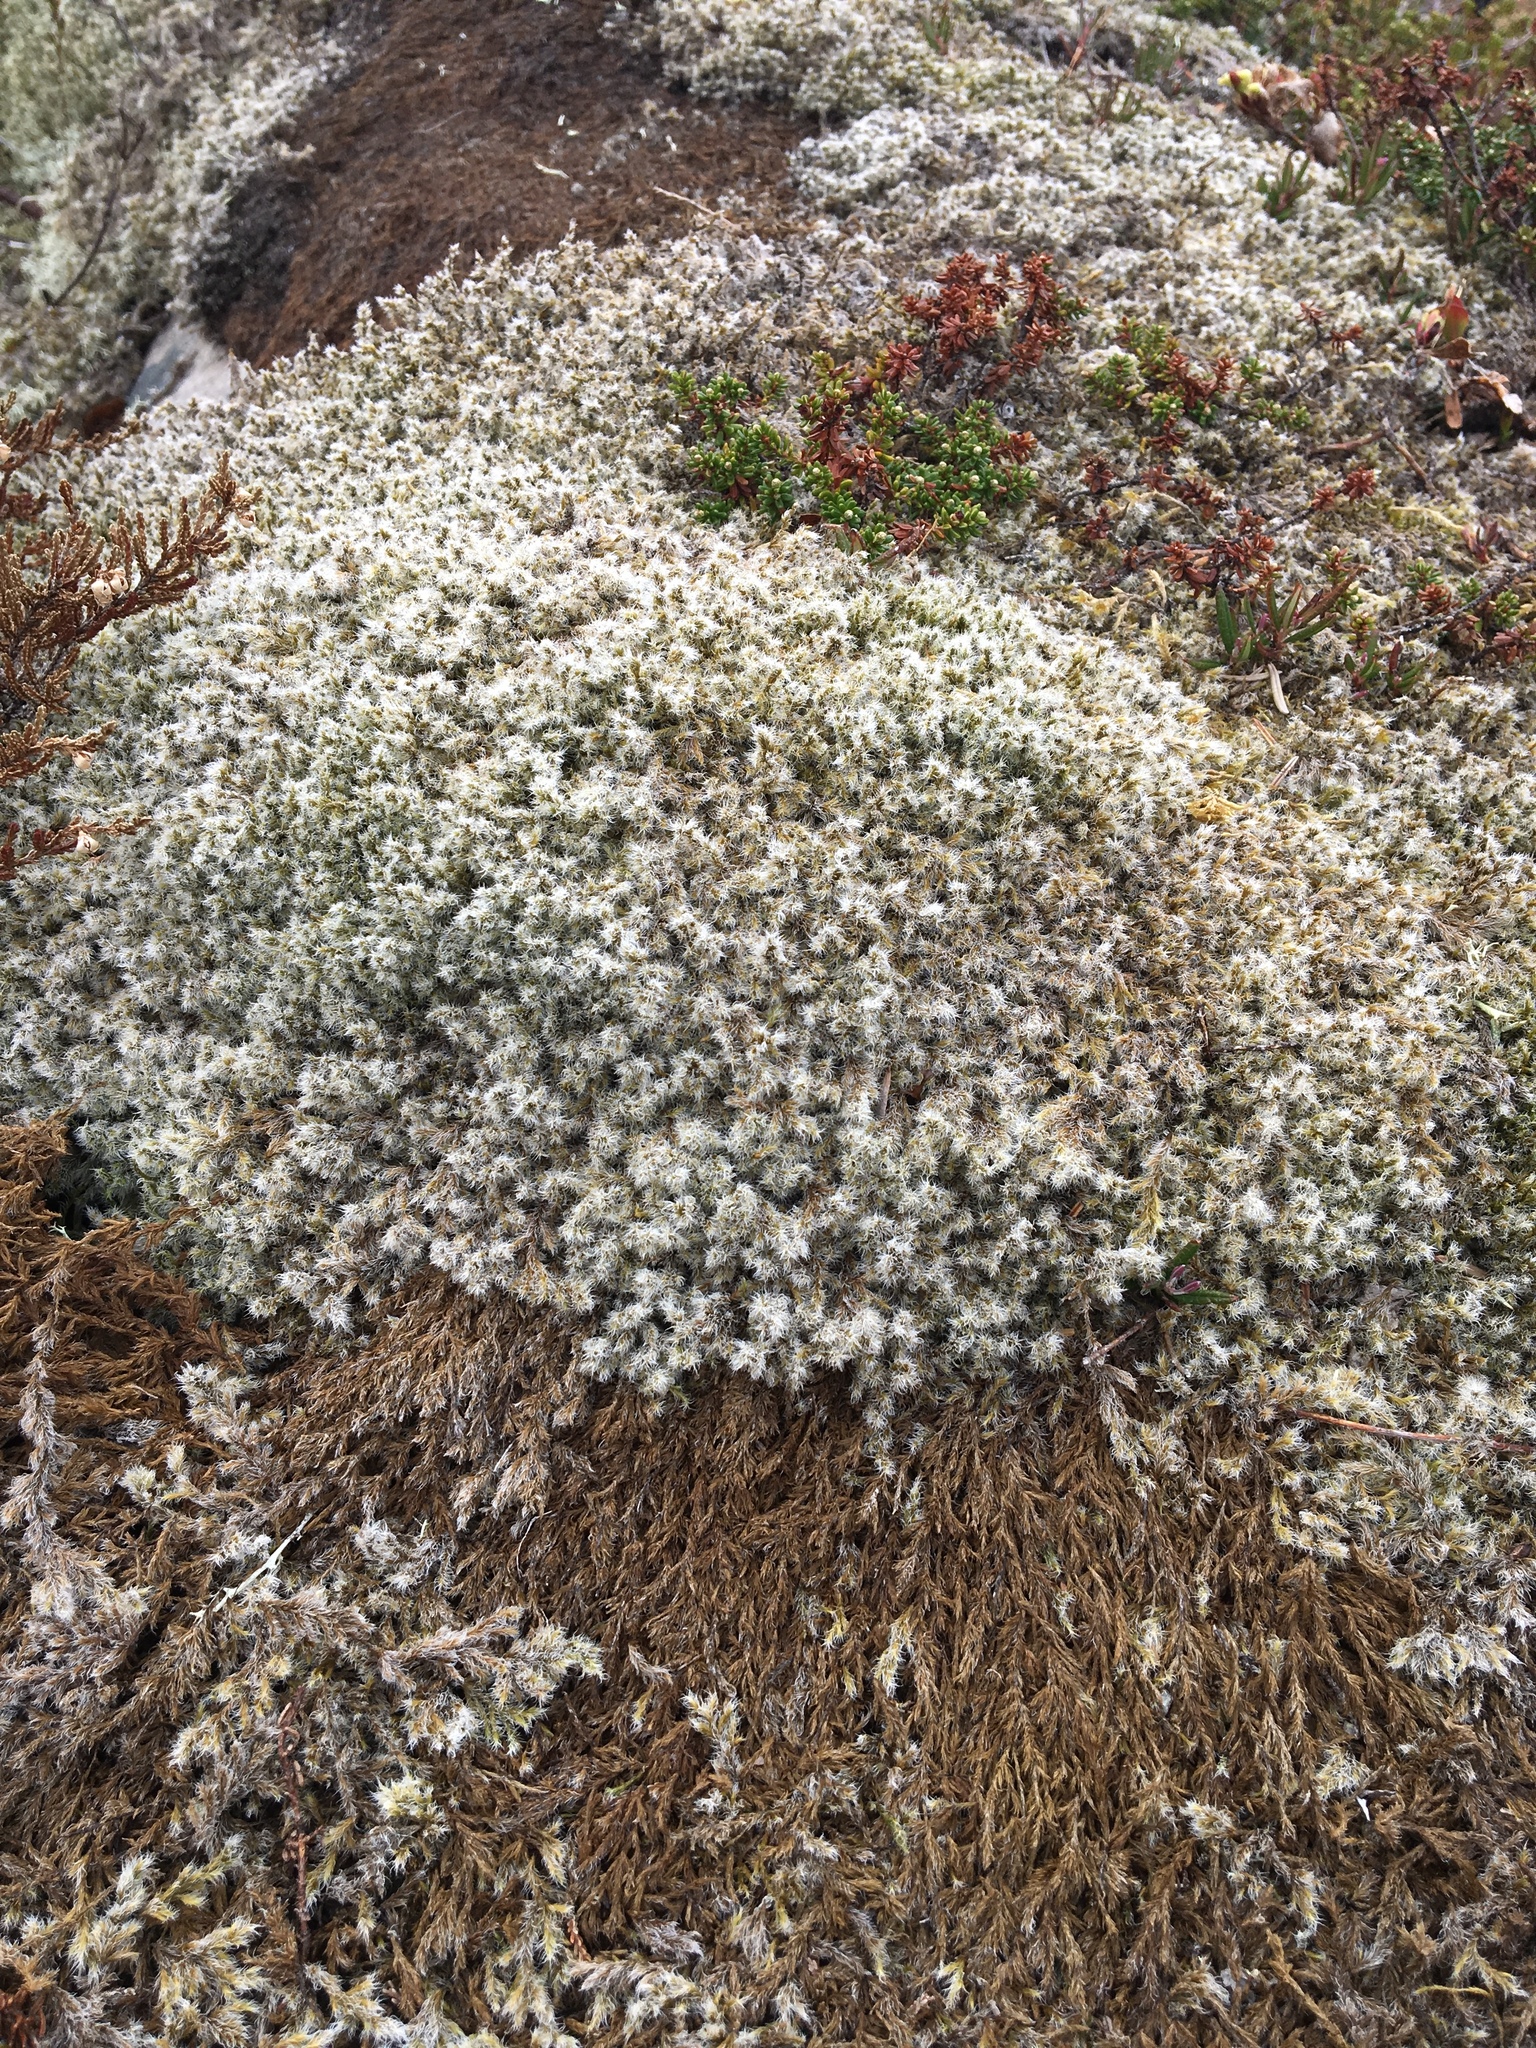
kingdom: Plantae
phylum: Bryophyta
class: Bryopsida
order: Grimmiales
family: Grimmiaceae
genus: Racomitrium
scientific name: Racomitrium lanuginosum
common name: Hoary rock moss
